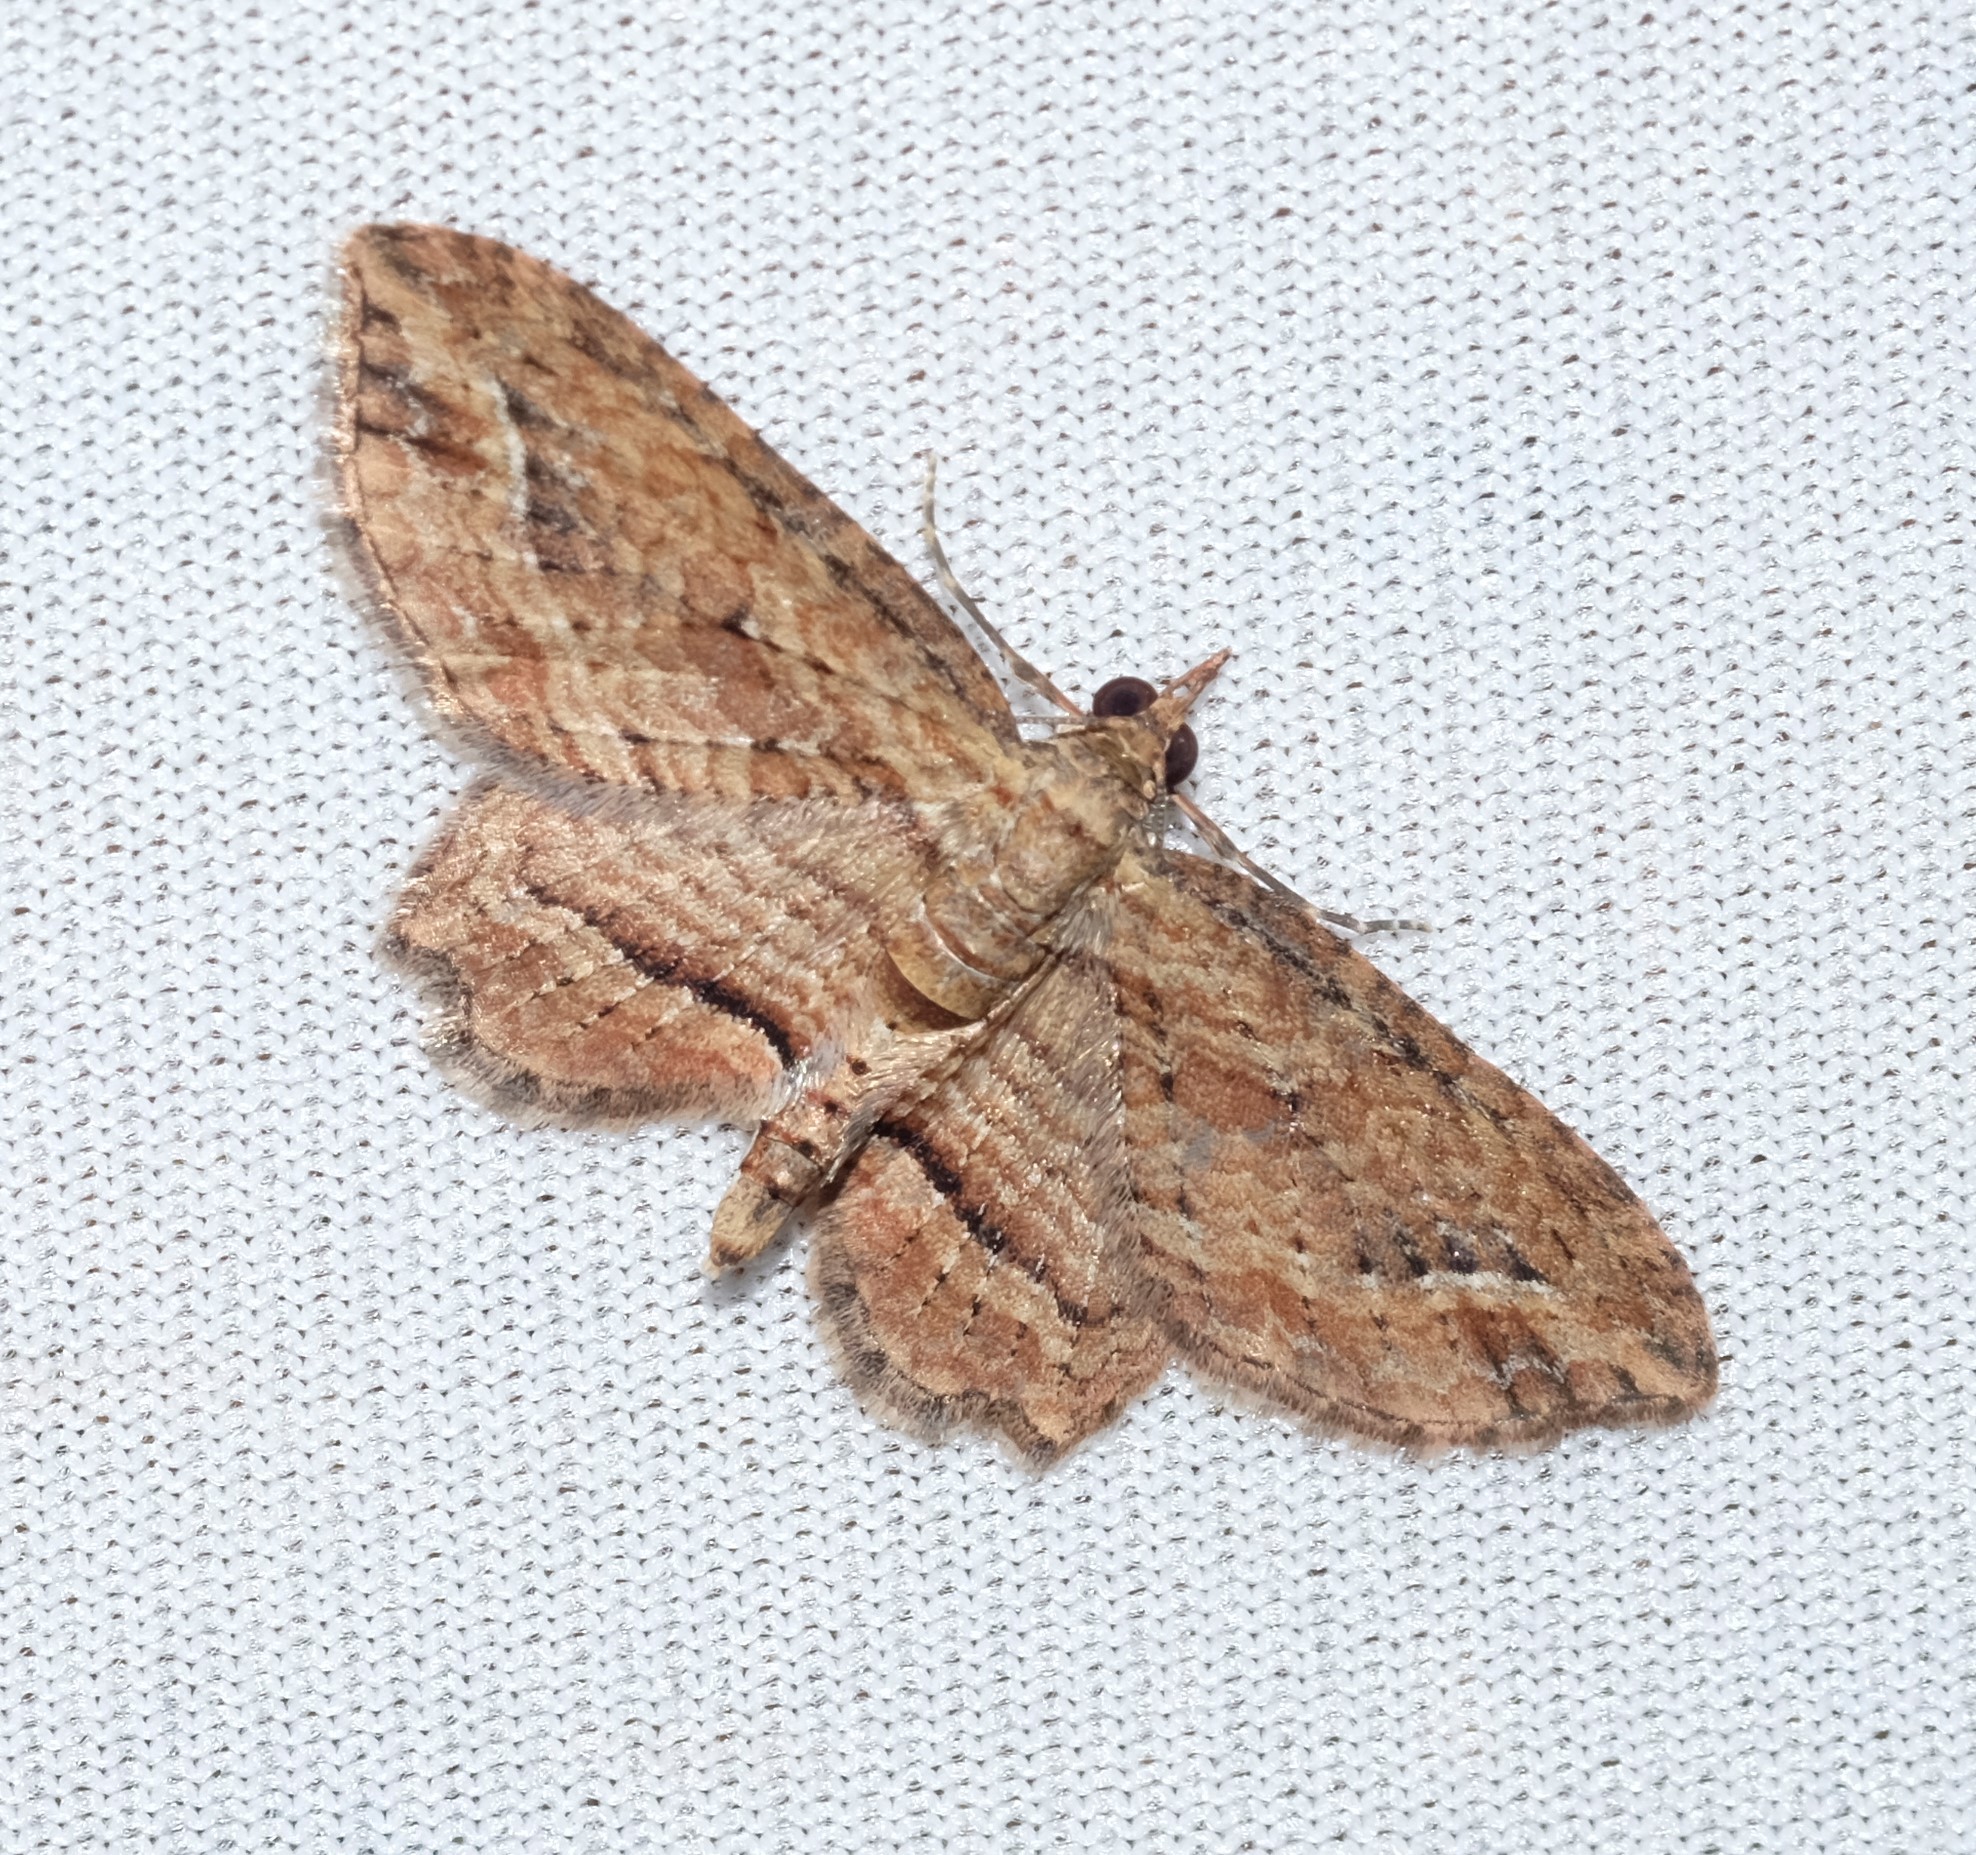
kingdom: Animalia
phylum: Arthropoda
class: Insecta
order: Lepidoptera
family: Geometridae
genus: Chloroclystis
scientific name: Chloroclystis filata
